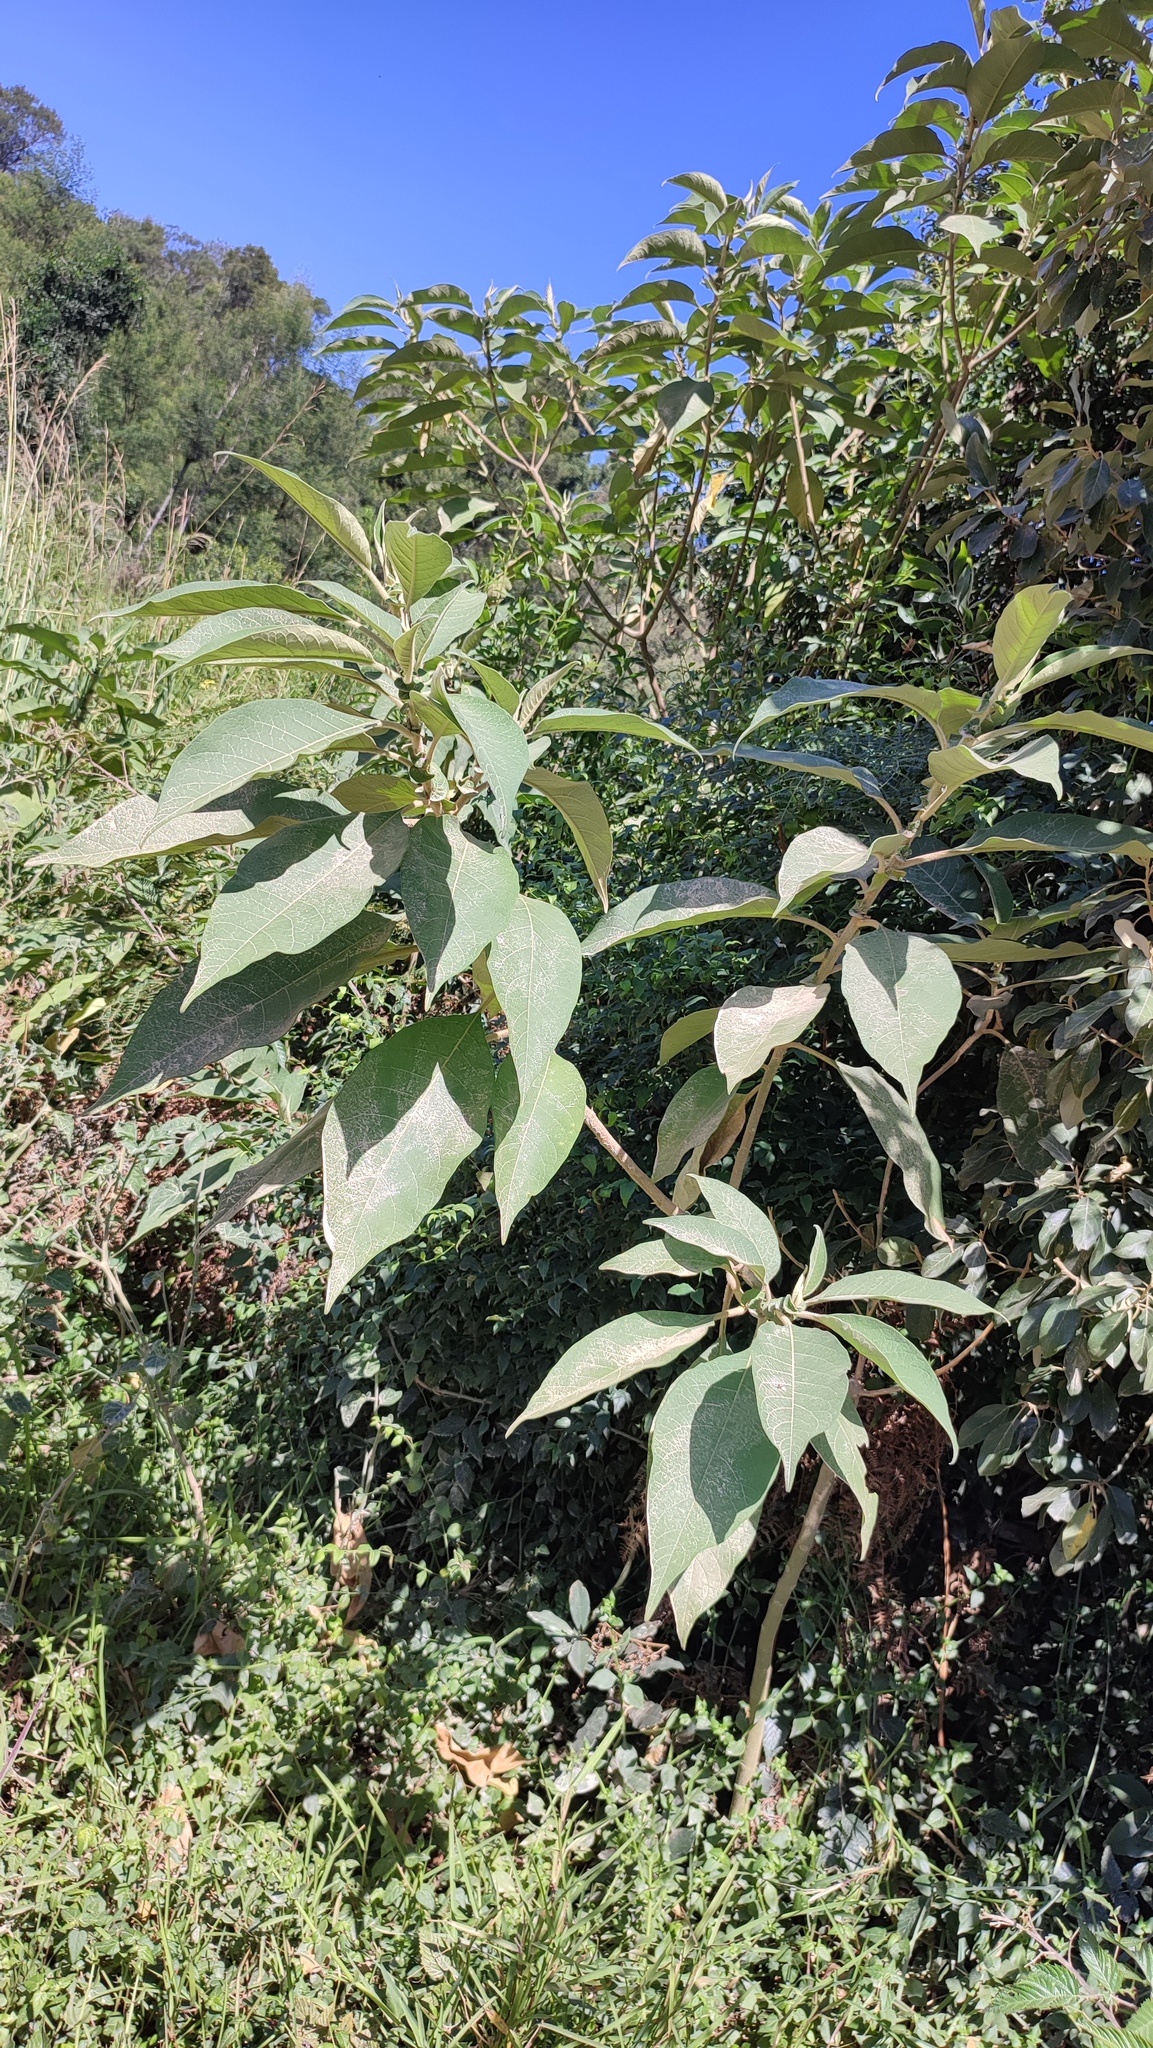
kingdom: Plantae
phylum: Tracheophyta
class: Magnoliopsida
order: Solanales
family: Solanaceae
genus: Solanum
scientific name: Solanum mauritianum
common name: Earleaf nightshade
